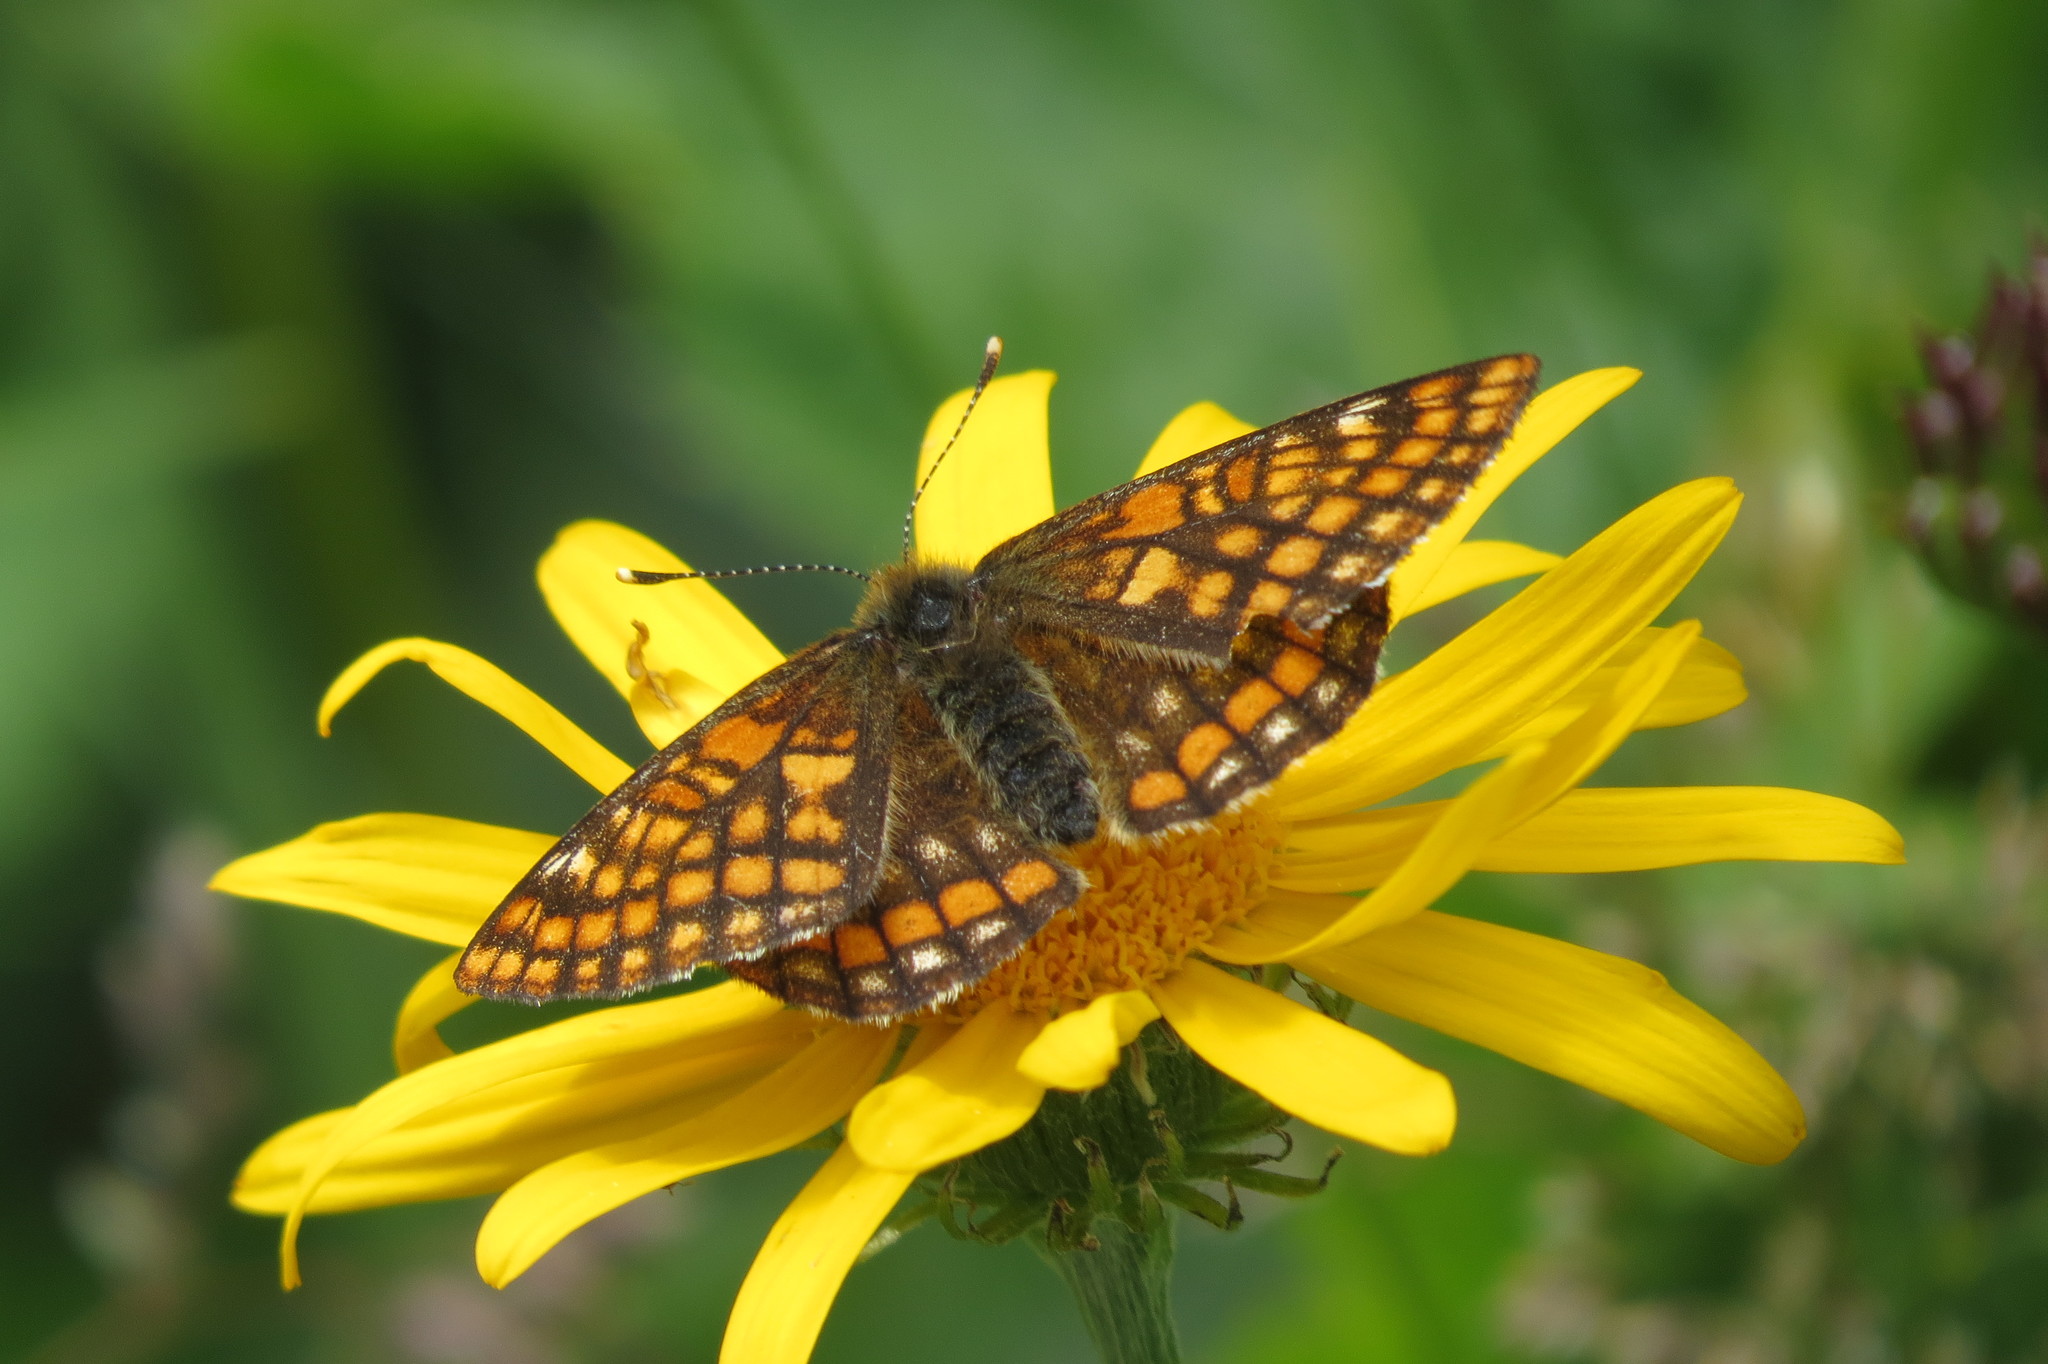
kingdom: Animalia
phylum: Arthropoda
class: Insecta
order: Lepidoptera
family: Nymphalidae
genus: Hypodryas
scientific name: Hypodryas intermedia
